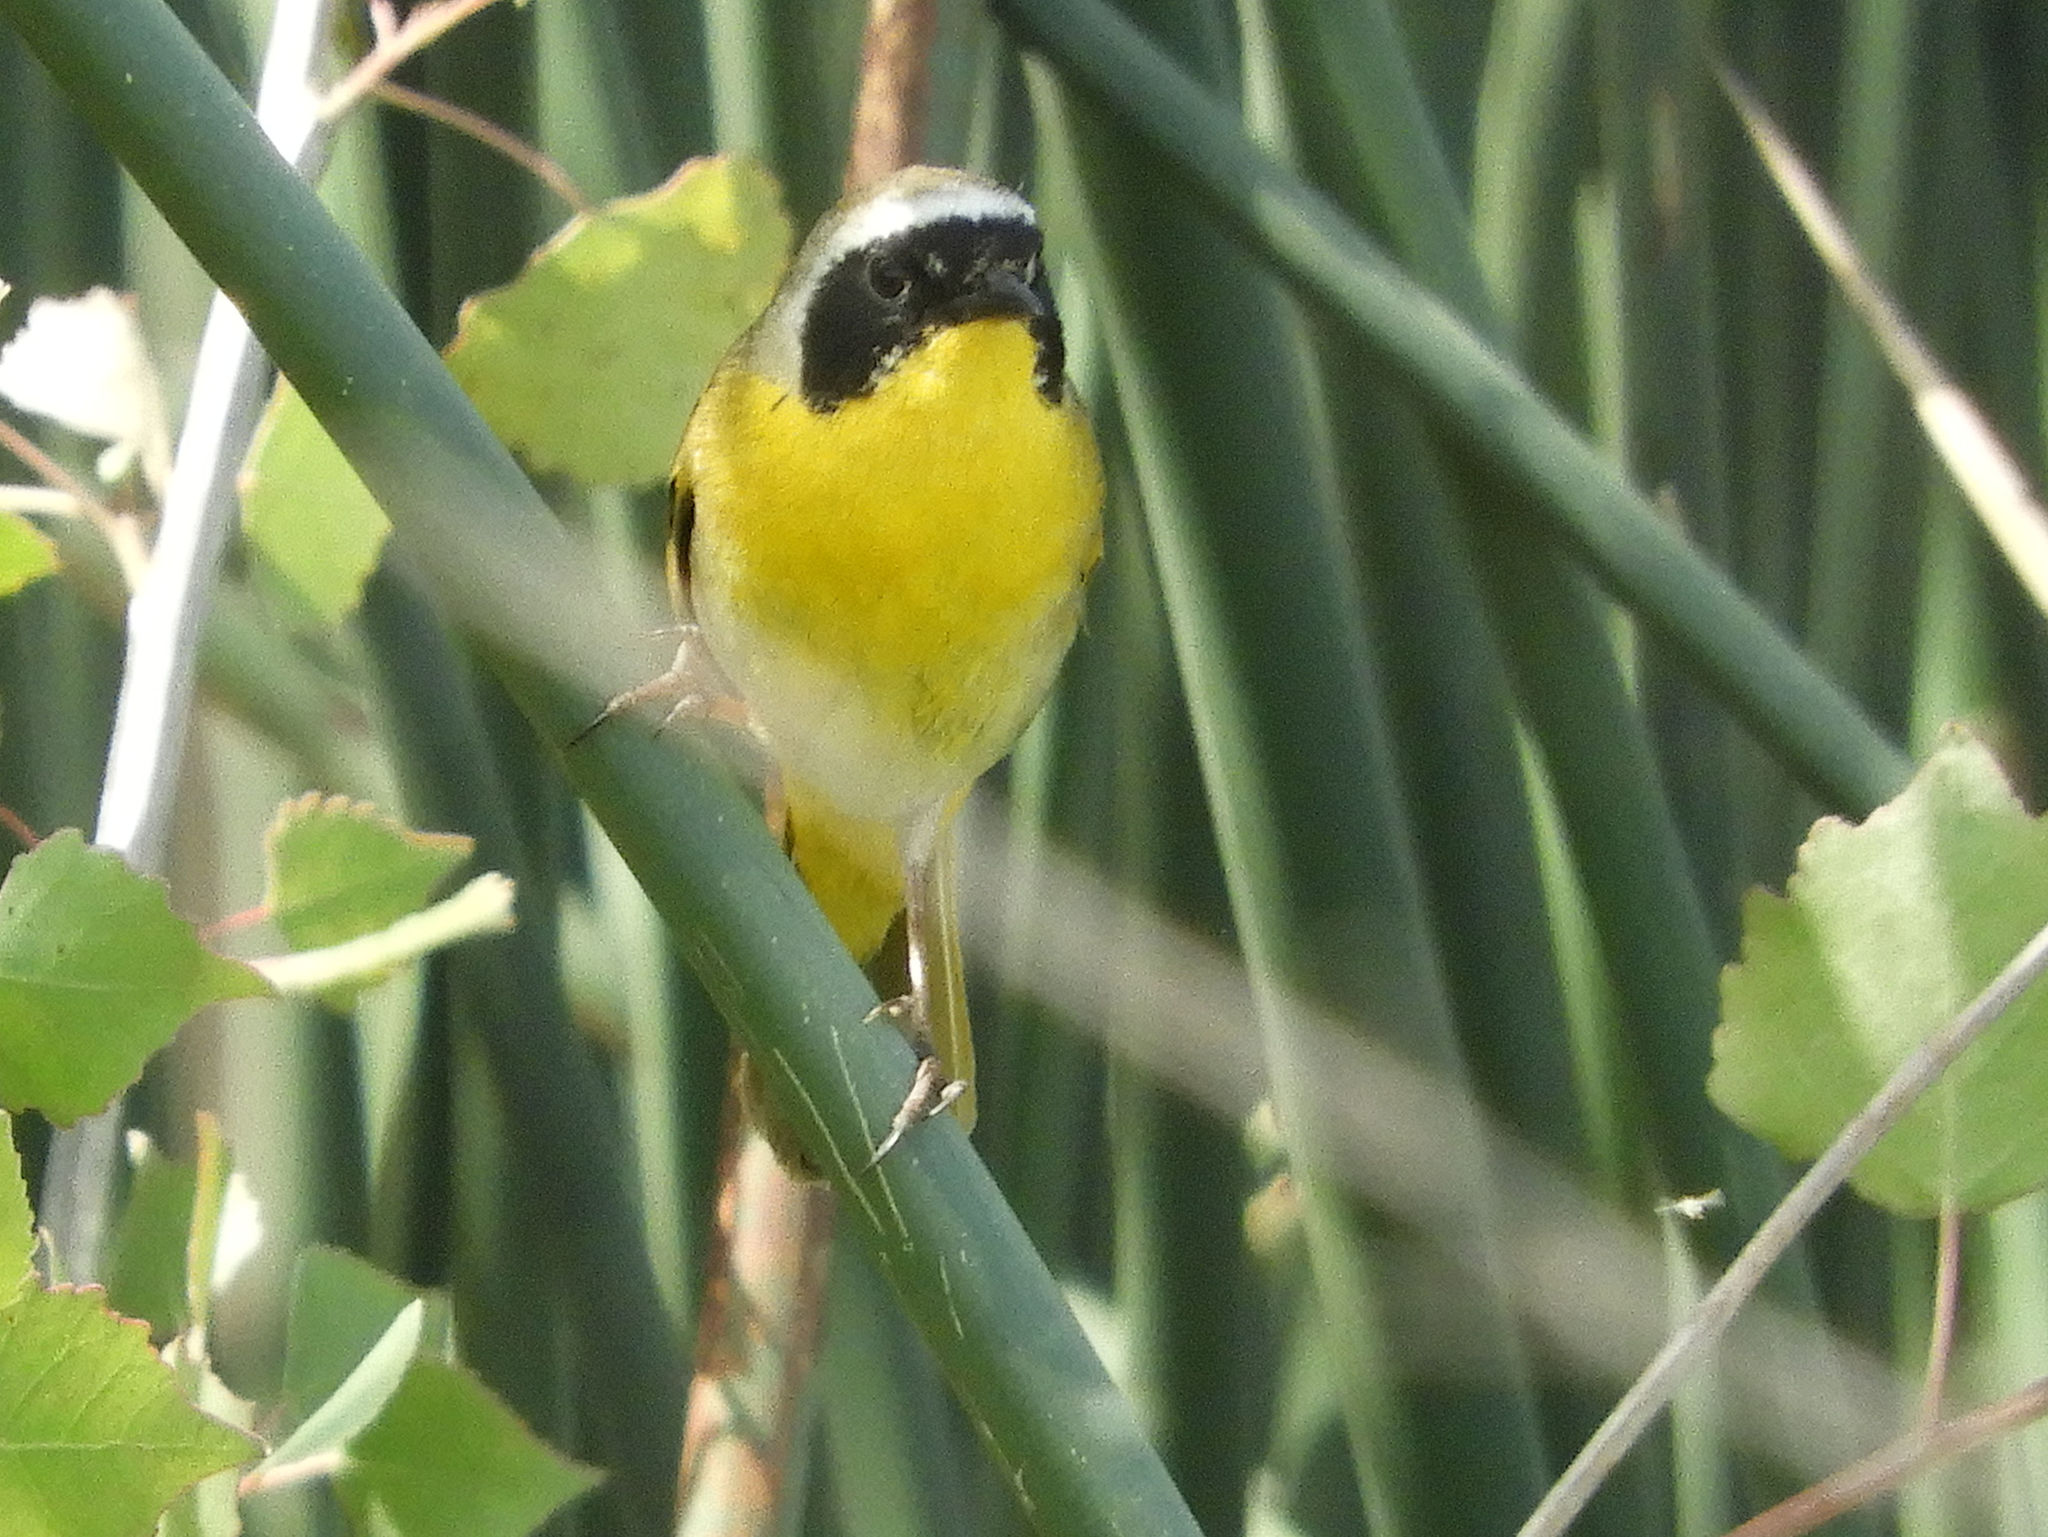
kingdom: Animalia
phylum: Chordata
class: Aves
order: Passeriformes
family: Parulidae
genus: Geothlypis
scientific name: Geothlypis trichas
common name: Common yellowthroat
